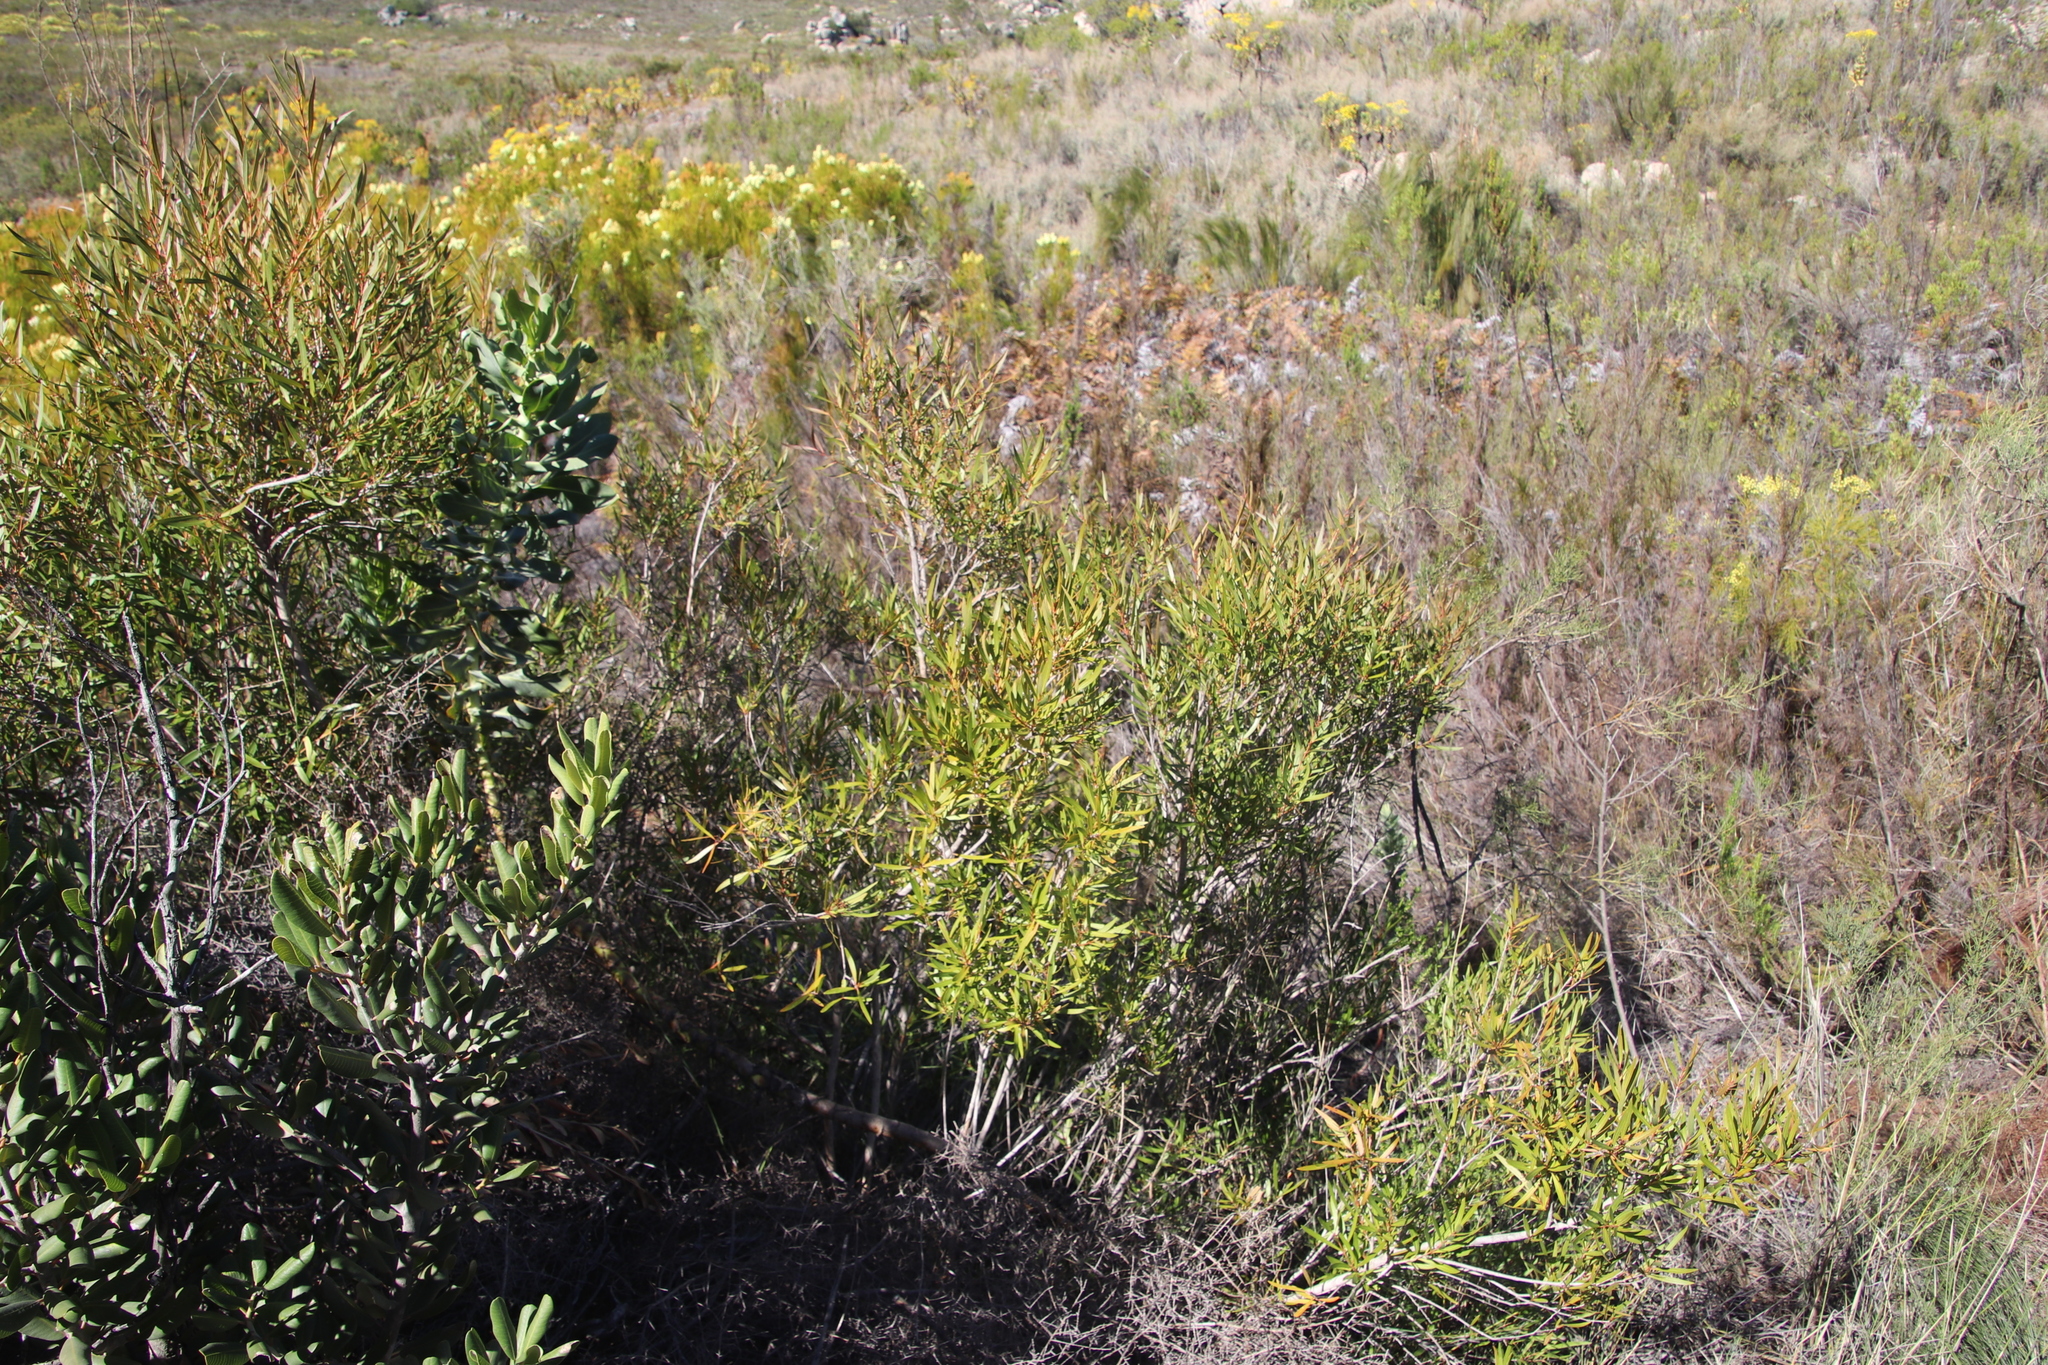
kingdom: Plantae
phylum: Tracheophyta
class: Magnoliopsida
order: Sapindales
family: Sapindaceae
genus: Dodonaea
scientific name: Dodonaea viscosa
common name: Hopbush
